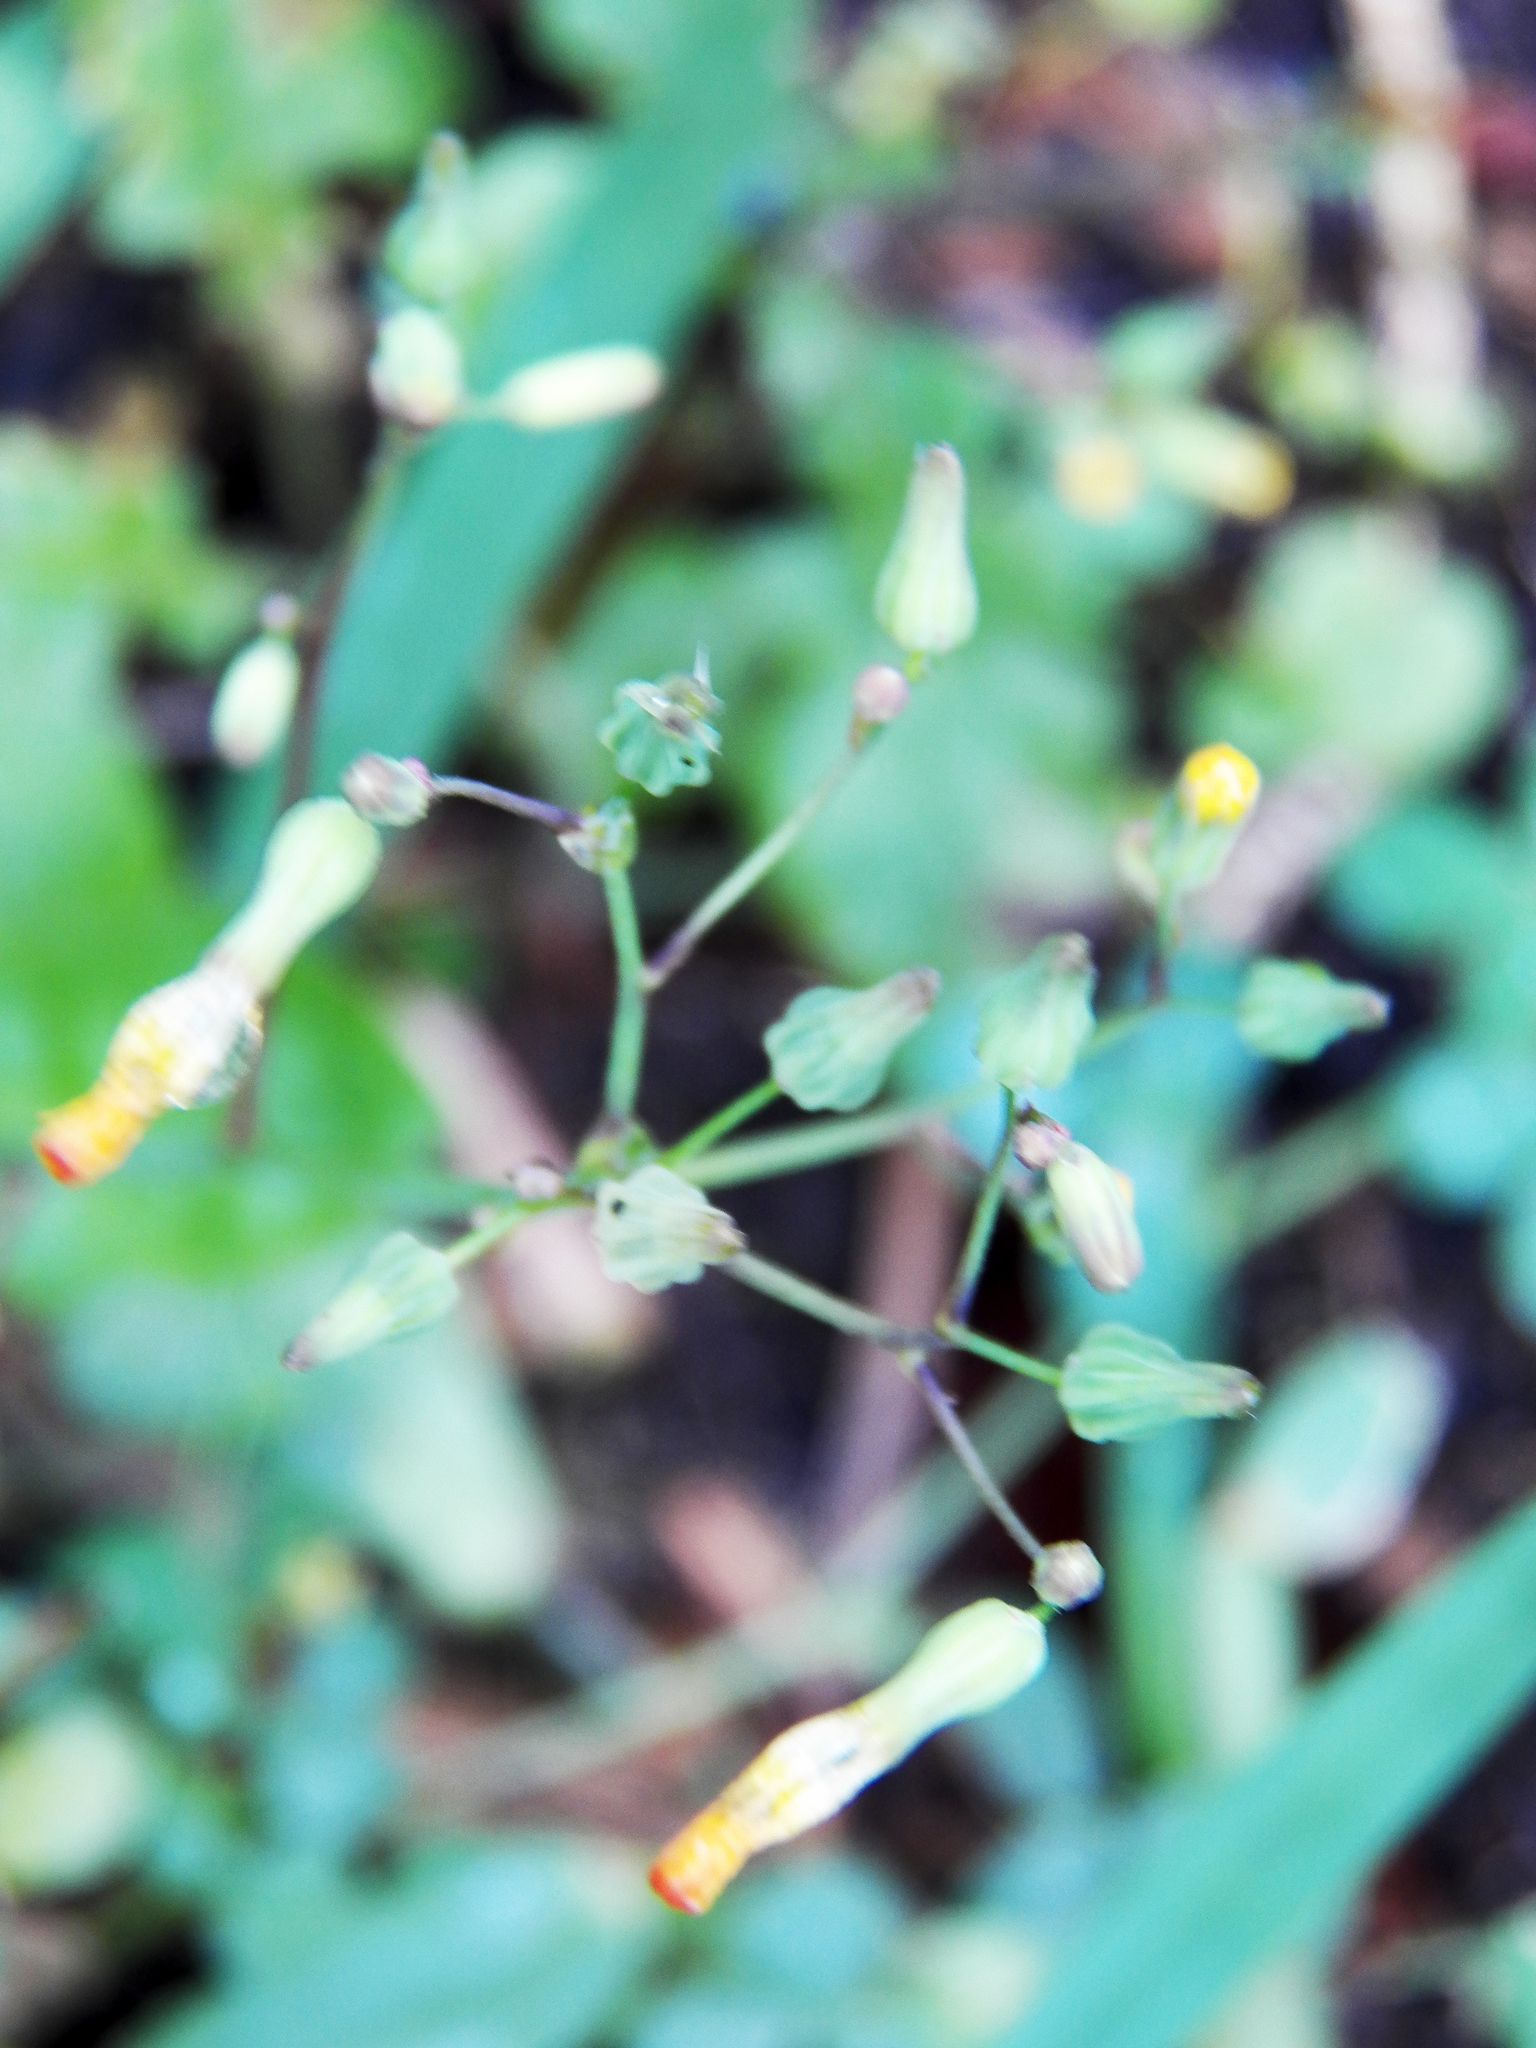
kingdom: Plantae
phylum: Tracheophyta
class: Magnoliopsida
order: Asterales
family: Asteraceae
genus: Youngia
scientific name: Youngia japonica
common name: Oriental false hawksbeard
